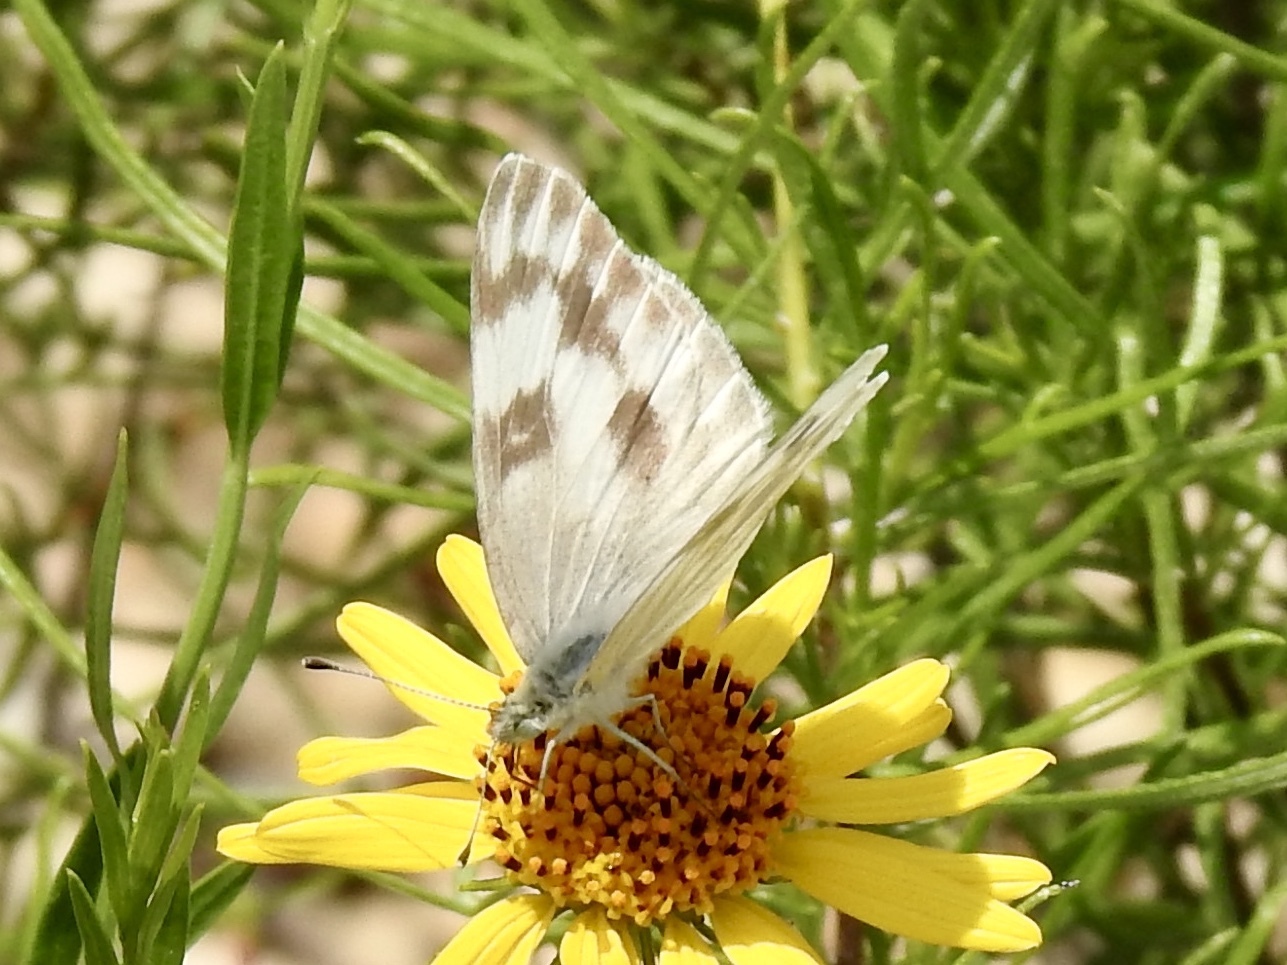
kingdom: Animalia
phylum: Arthropoda
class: Insecta
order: Lepidoptera
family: Pieridae
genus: Pontia
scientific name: Pontia protodice
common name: Checkered white
